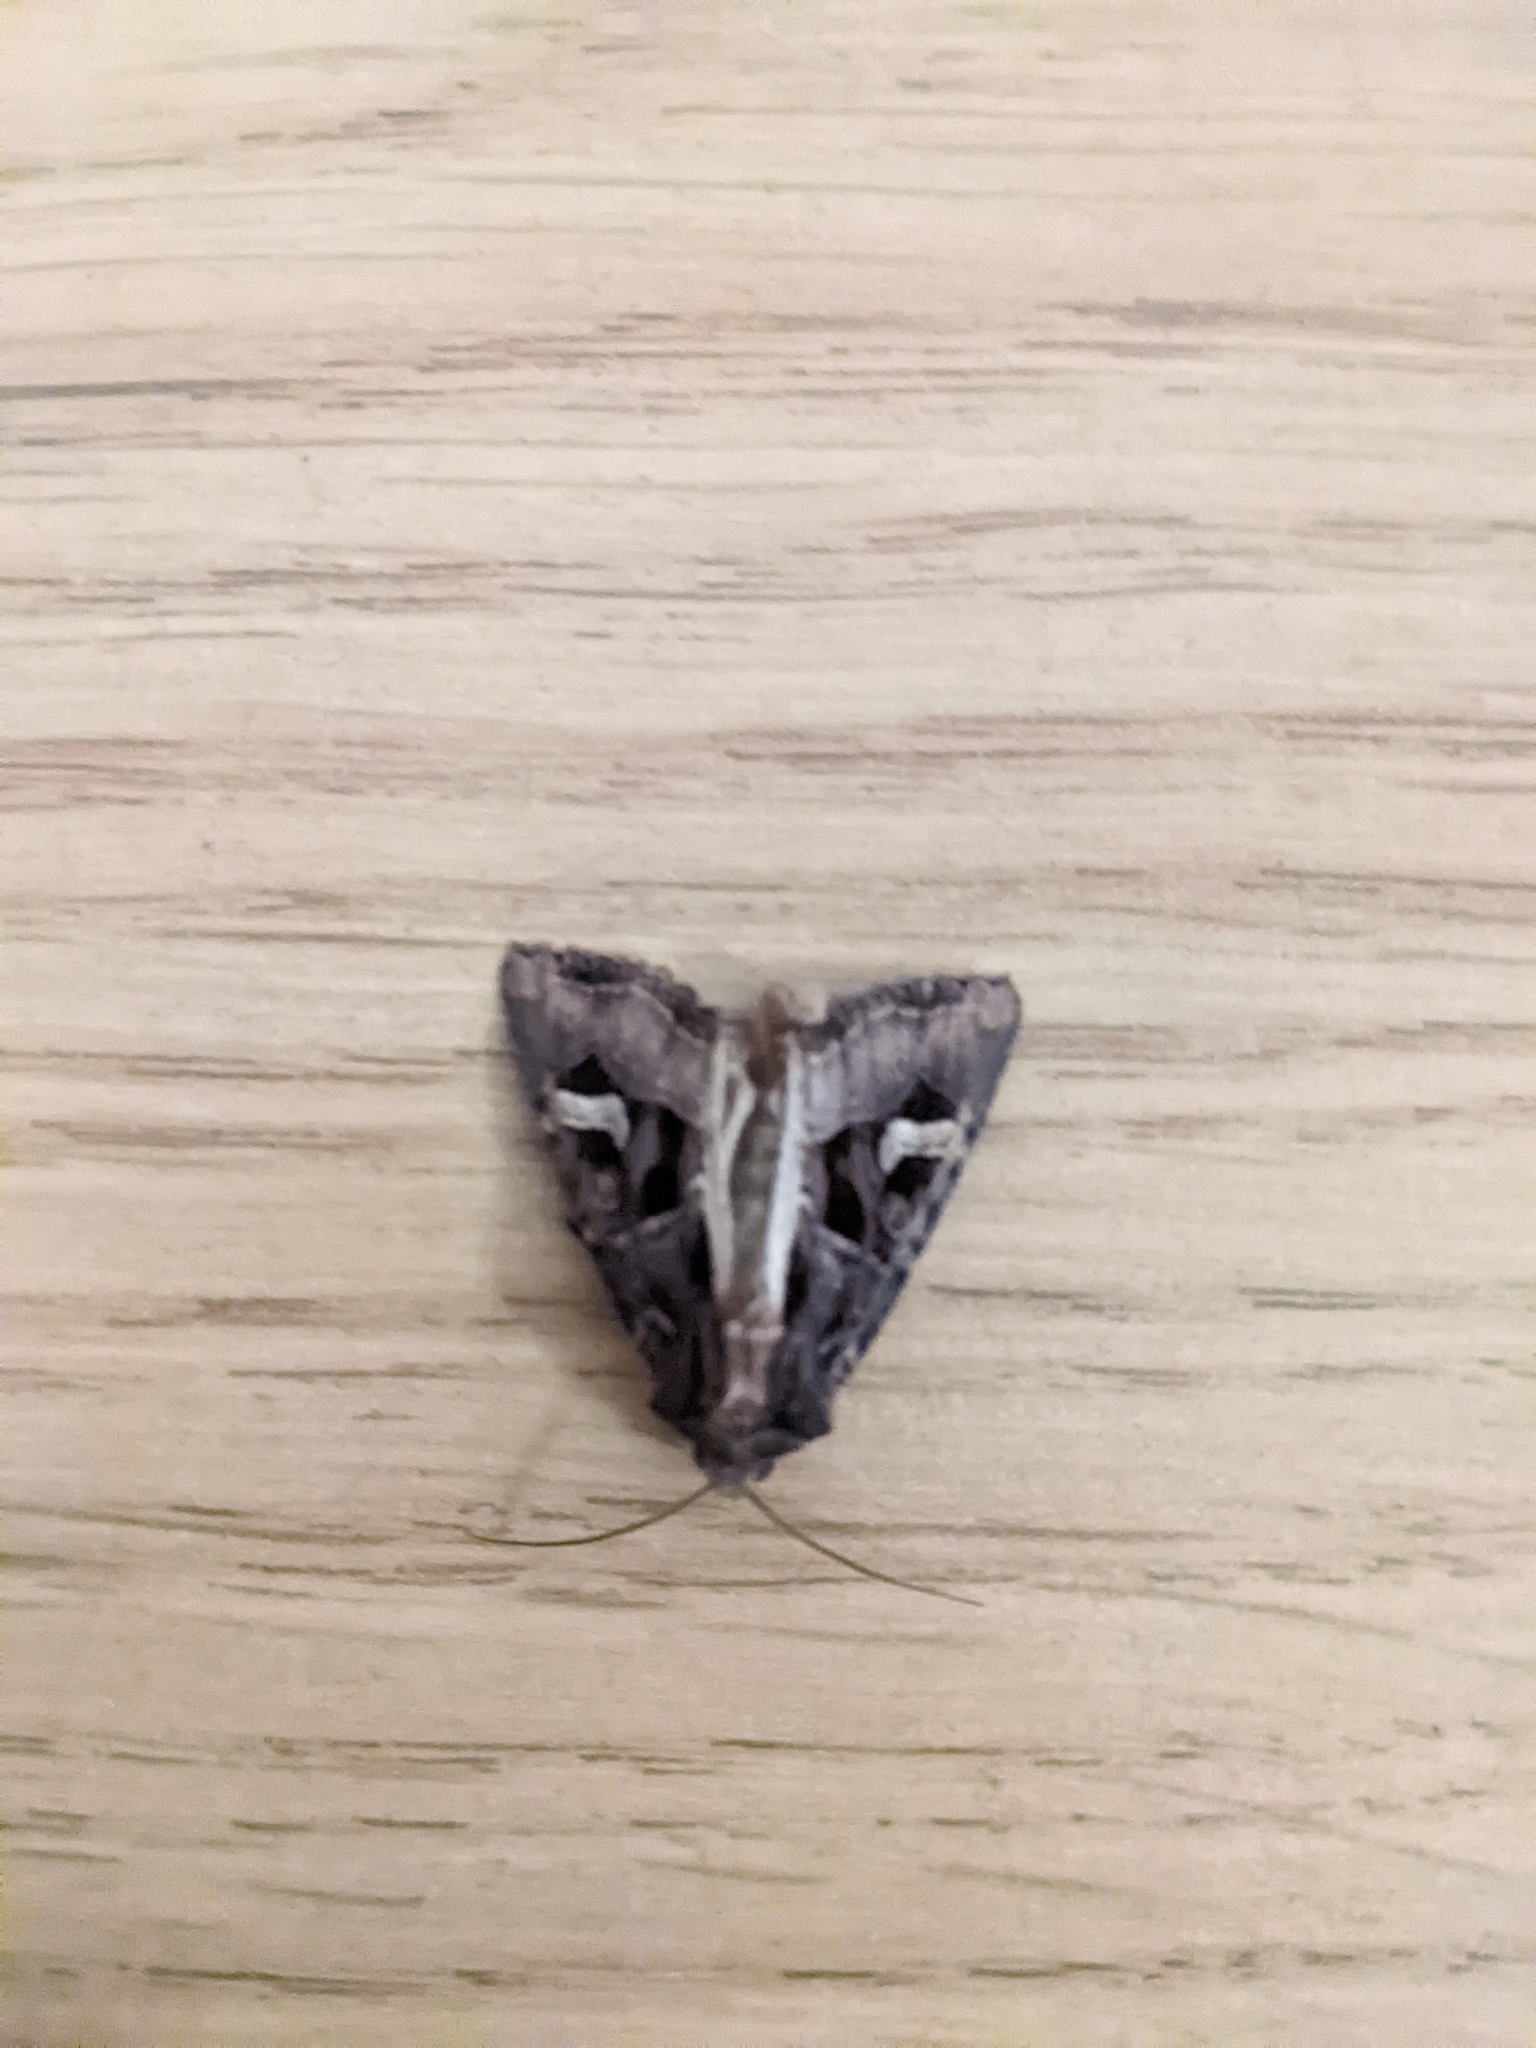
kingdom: Animalia
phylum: Arthropoda
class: Insecta
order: Lepidoptera
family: Noctuidae
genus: Trigonophora
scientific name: Trigonophora flammea
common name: Flame brocade
